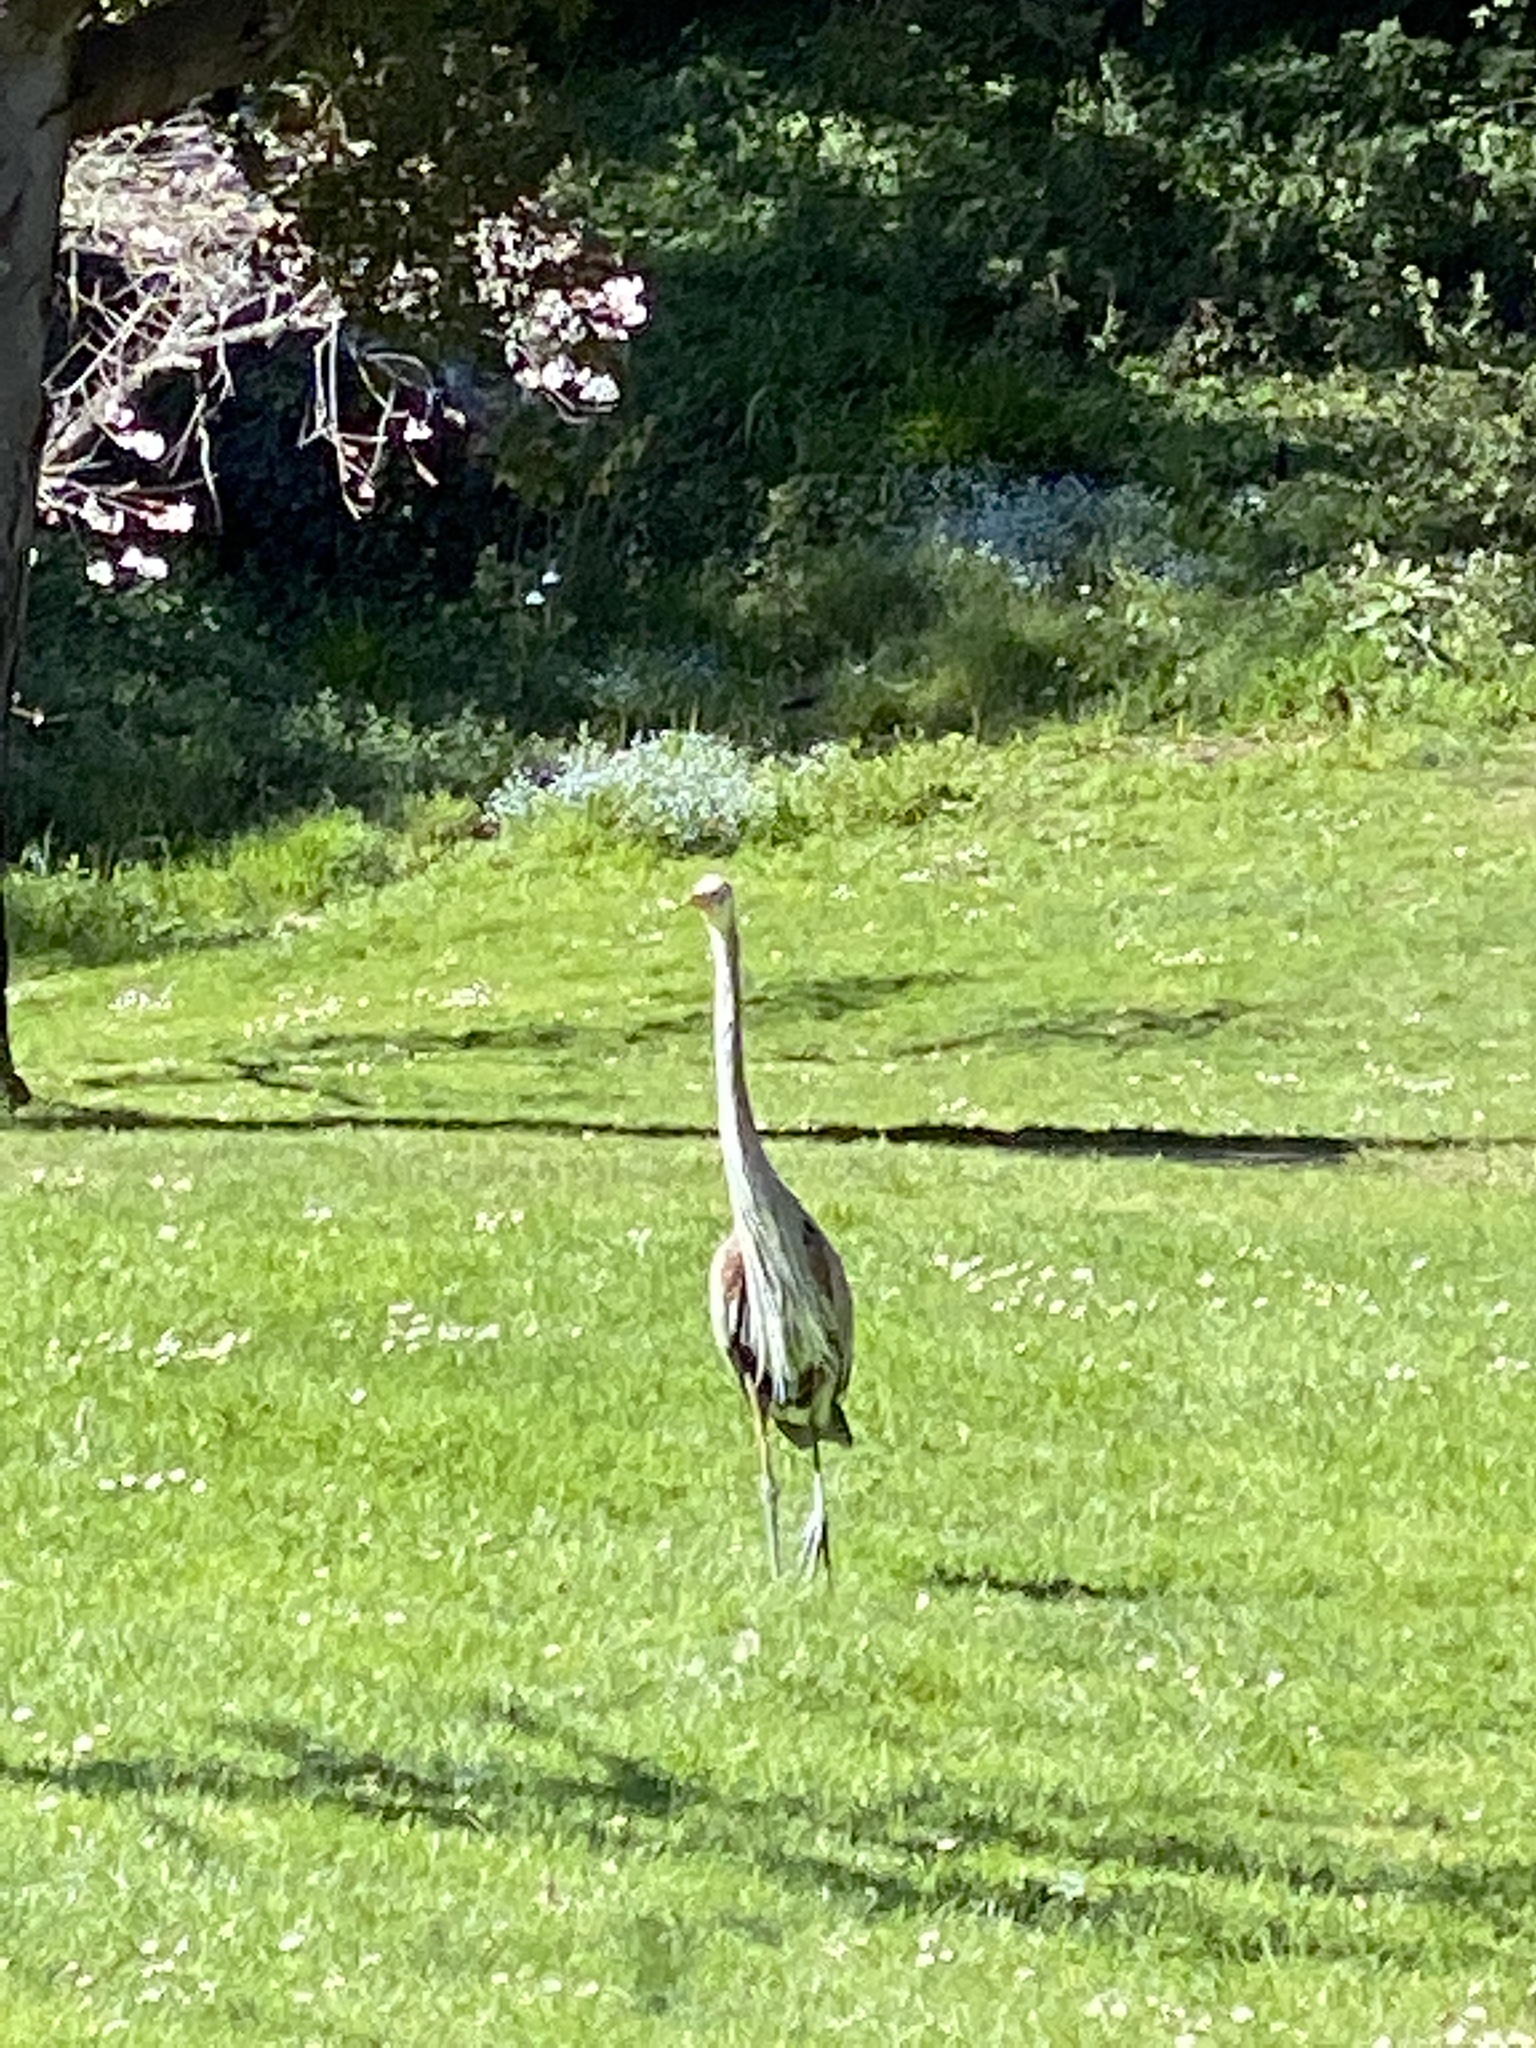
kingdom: Animalia
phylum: Chordata
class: Aves
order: Pelecaniformes
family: Ardeidae
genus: Ardea
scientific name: Ardea herodias
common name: Great blue heron
